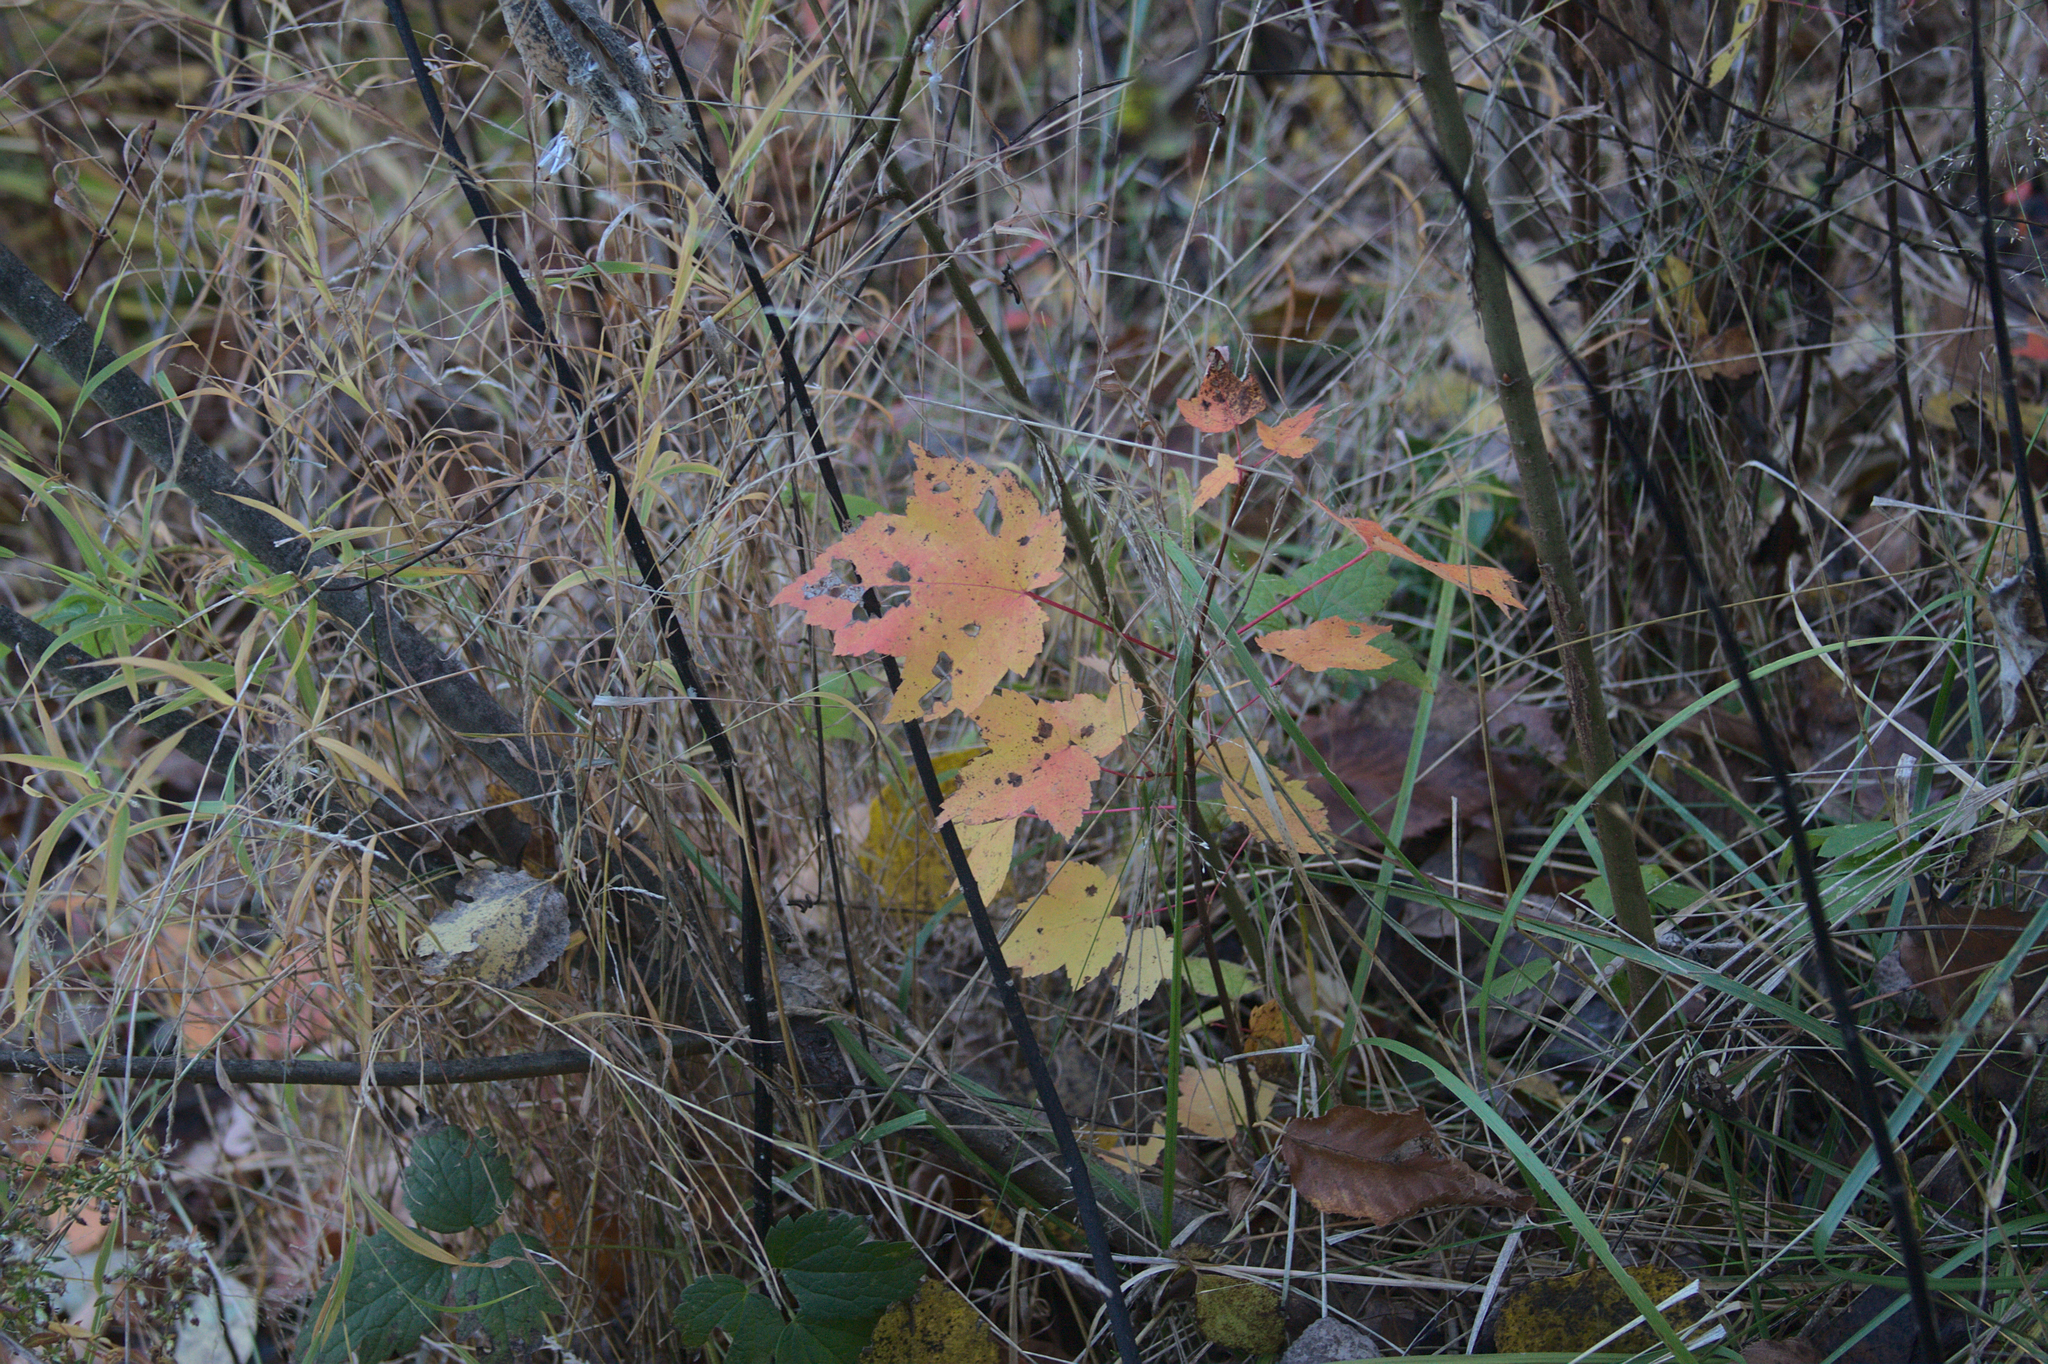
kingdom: Plantae
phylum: Tracheophyta
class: Magnoliopsida
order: Sapindales
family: Sapindaceae
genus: Acer
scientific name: Acer rubrum
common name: Red maple
